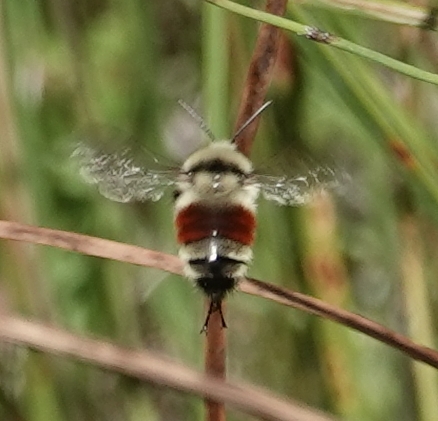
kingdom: Animalia
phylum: Arthropoda
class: Insecta
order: Hymenoptera
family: Apidae
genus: Bombus
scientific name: Bombus huntii
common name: Hunt bumble bee
